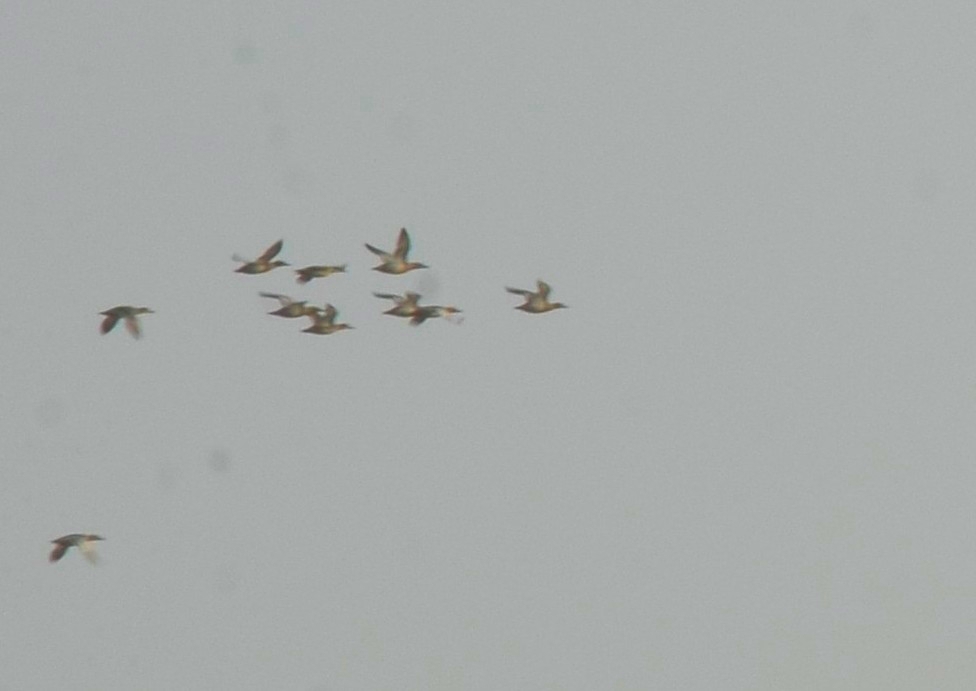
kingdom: Animalia
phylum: Chordata
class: Aves
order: Anseriformes
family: Anatidae
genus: Spatula
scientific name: Spatula querquedula
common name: Garganey
